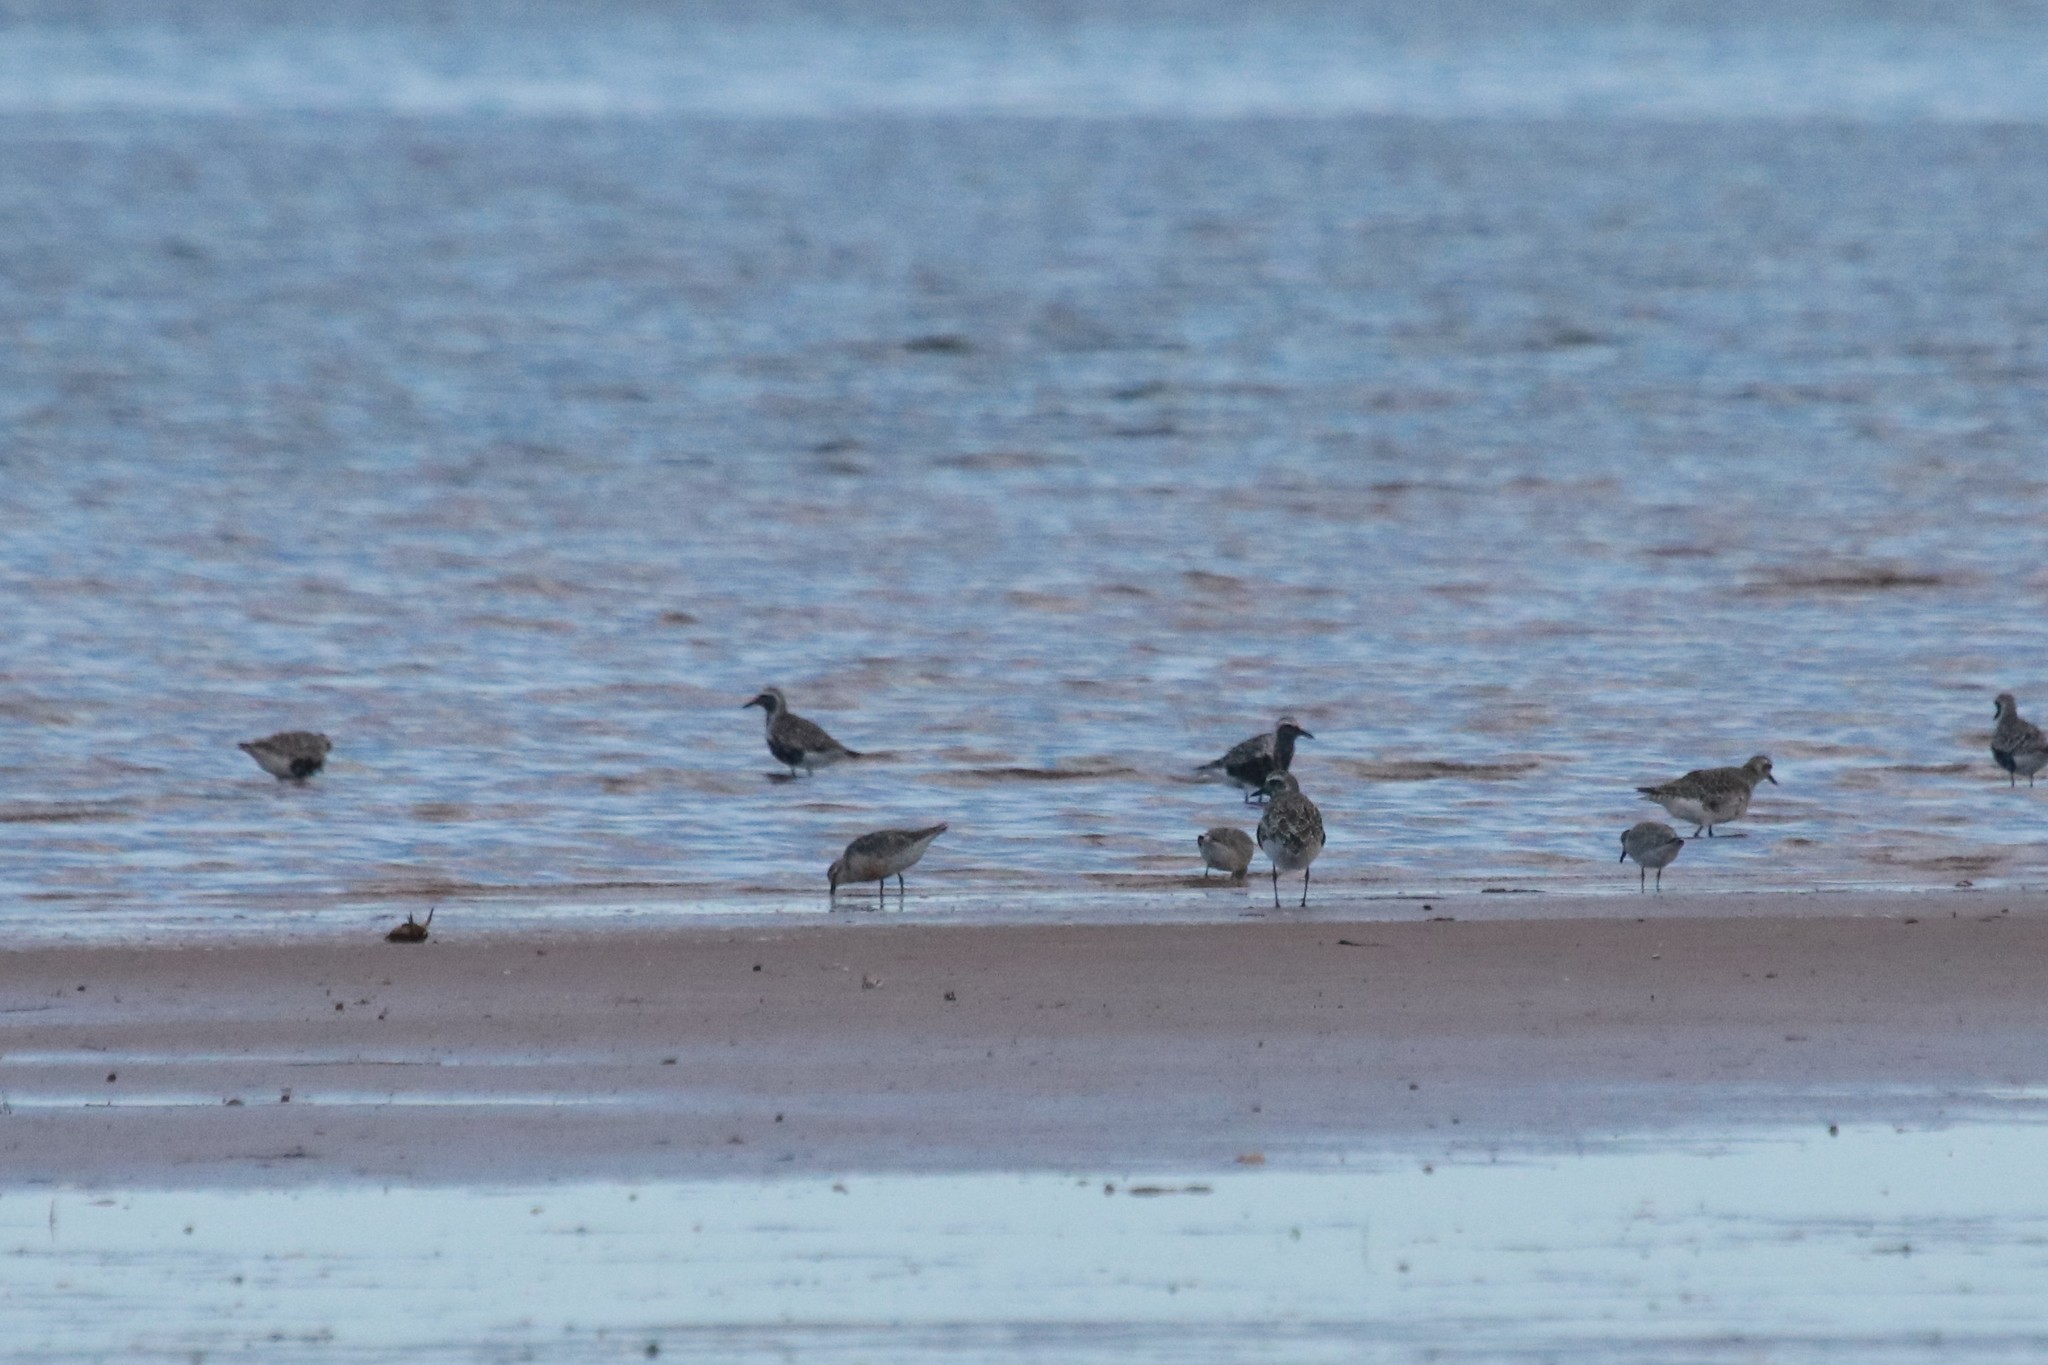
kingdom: Animalia
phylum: Chordata
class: Aves
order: Charadriiformes
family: Charadriidae
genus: Pluvialis
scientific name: Pluvialis squatarola
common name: Grey plover
